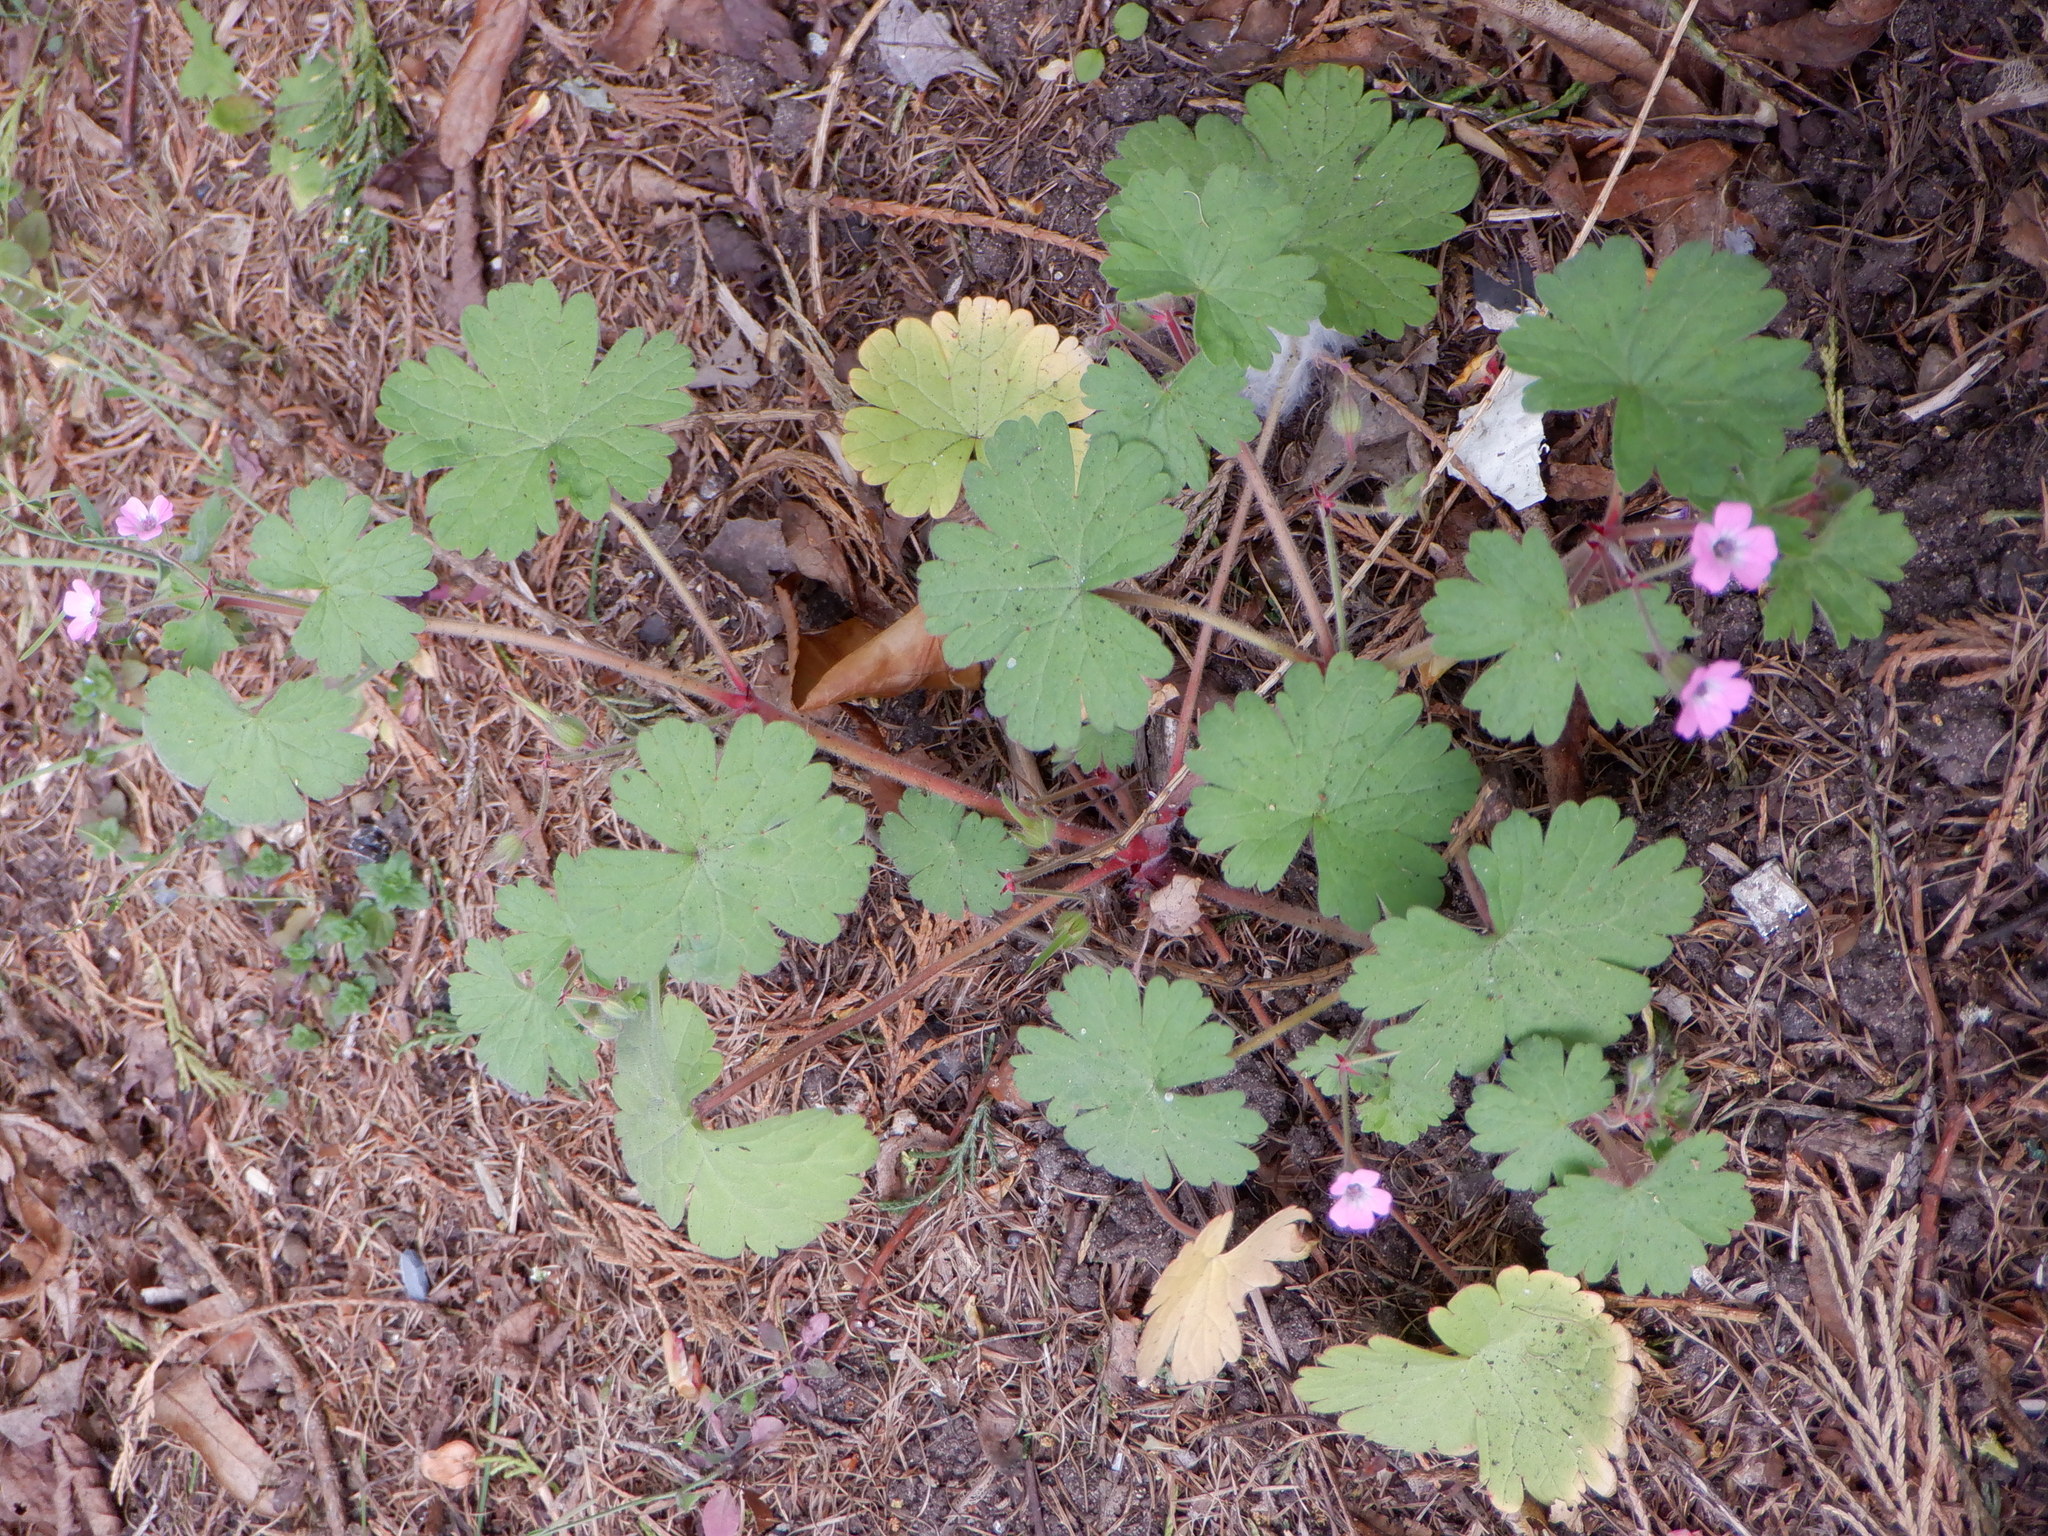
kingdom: Plantae
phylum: Tracheophyta
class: Magnoliopsida
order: Geraniales
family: Geraniaceae
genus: Geranium
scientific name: Geranium rotundifolium
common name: Round-leaved crane's-bill
